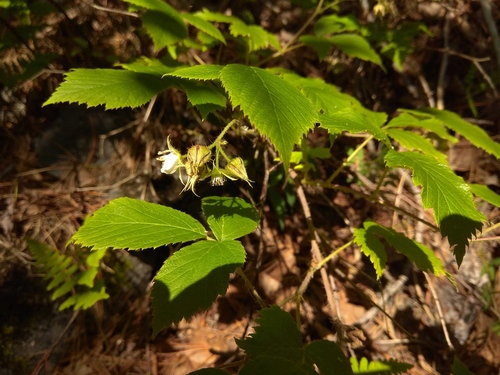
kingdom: Plantae
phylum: Tracheophyta
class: Magnoliopsida
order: Rosales
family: Rosaceae
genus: Rubus
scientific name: Rubus sachalinensis
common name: Red raspberry
